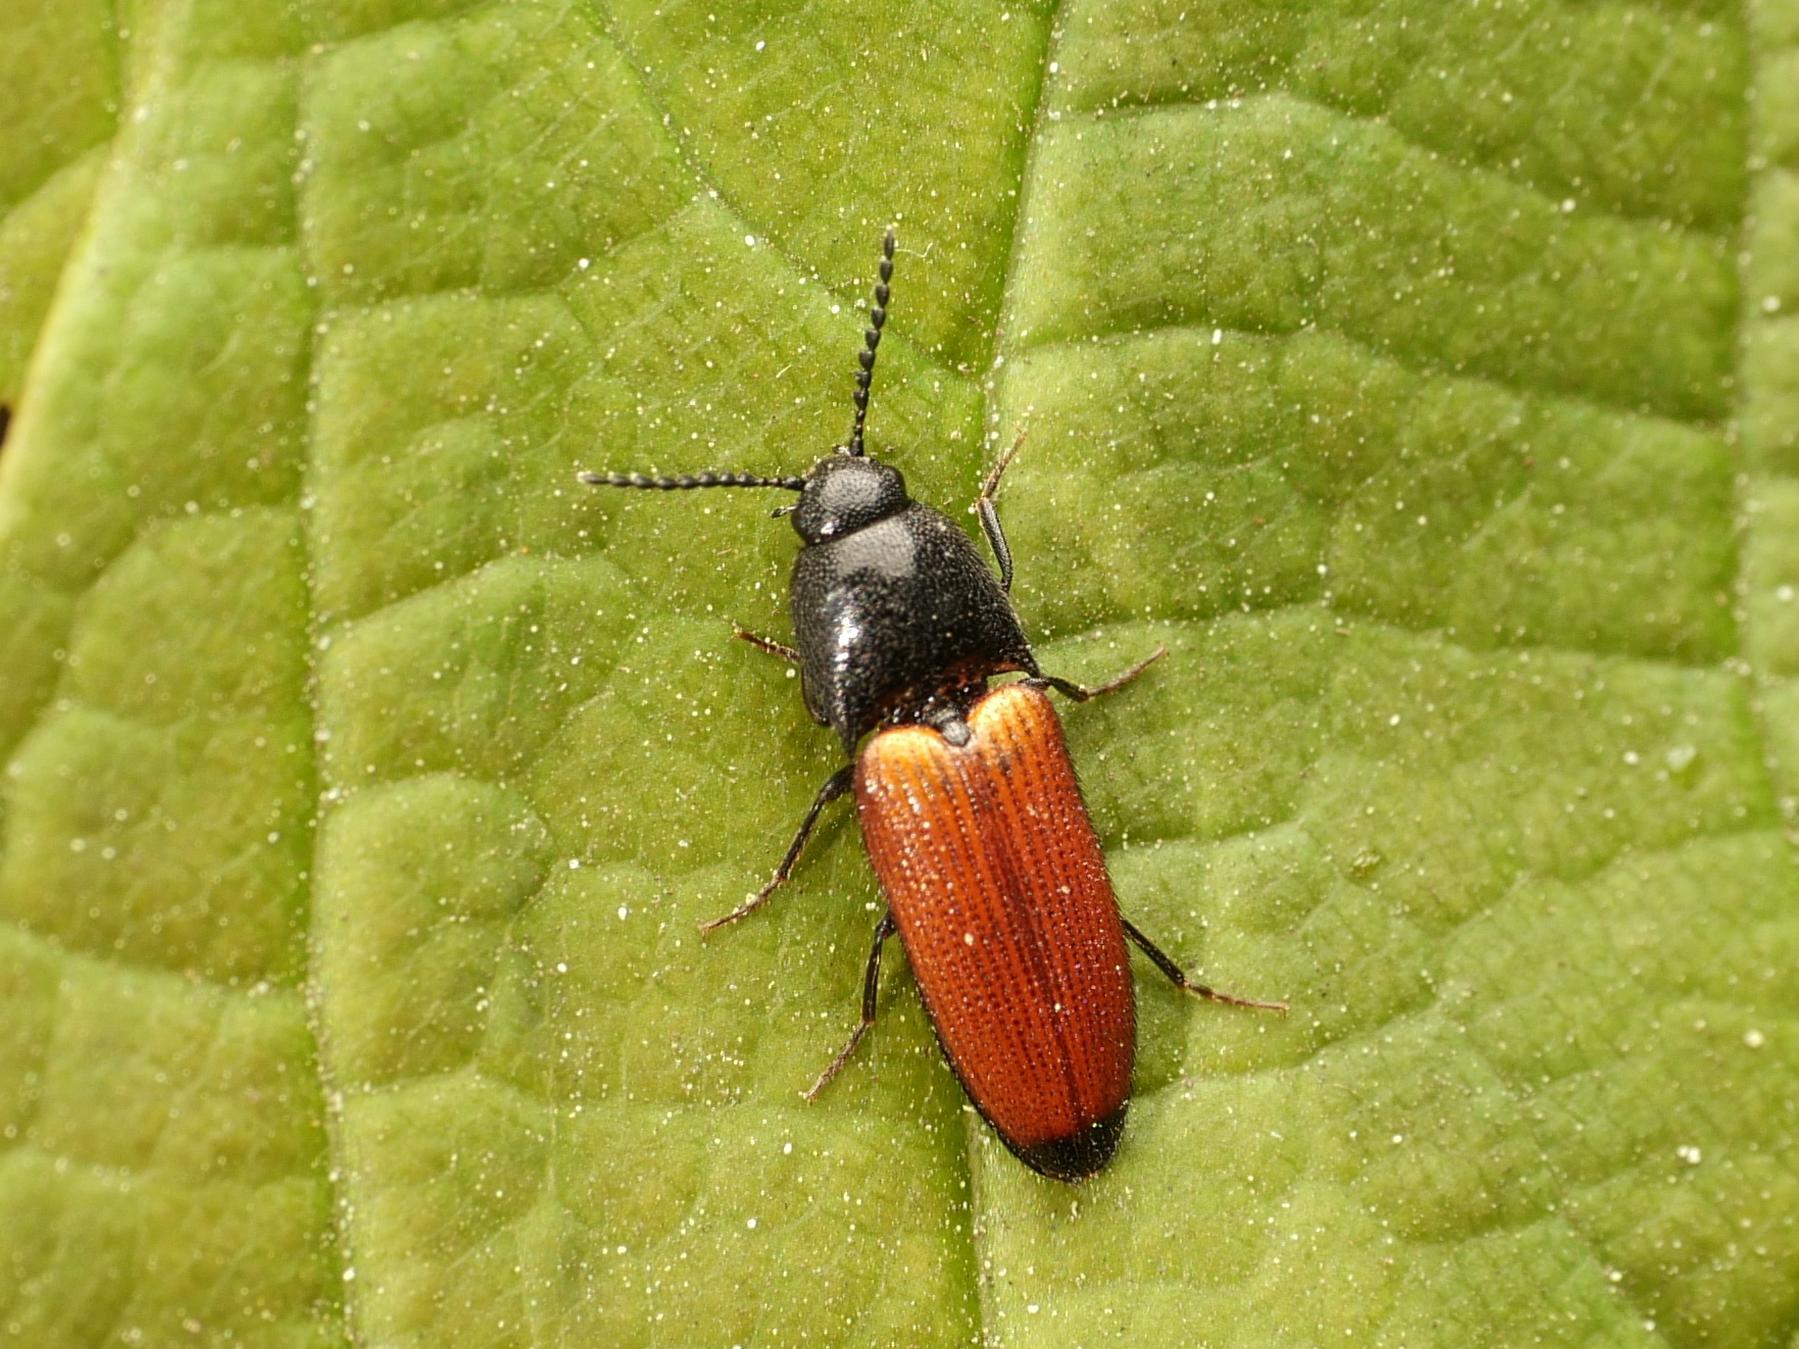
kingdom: Animalia
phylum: Arthropoda
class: Insecta
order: Coleoptera
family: Elateridae
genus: Ampedus
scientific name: Ampedus elongatulus
